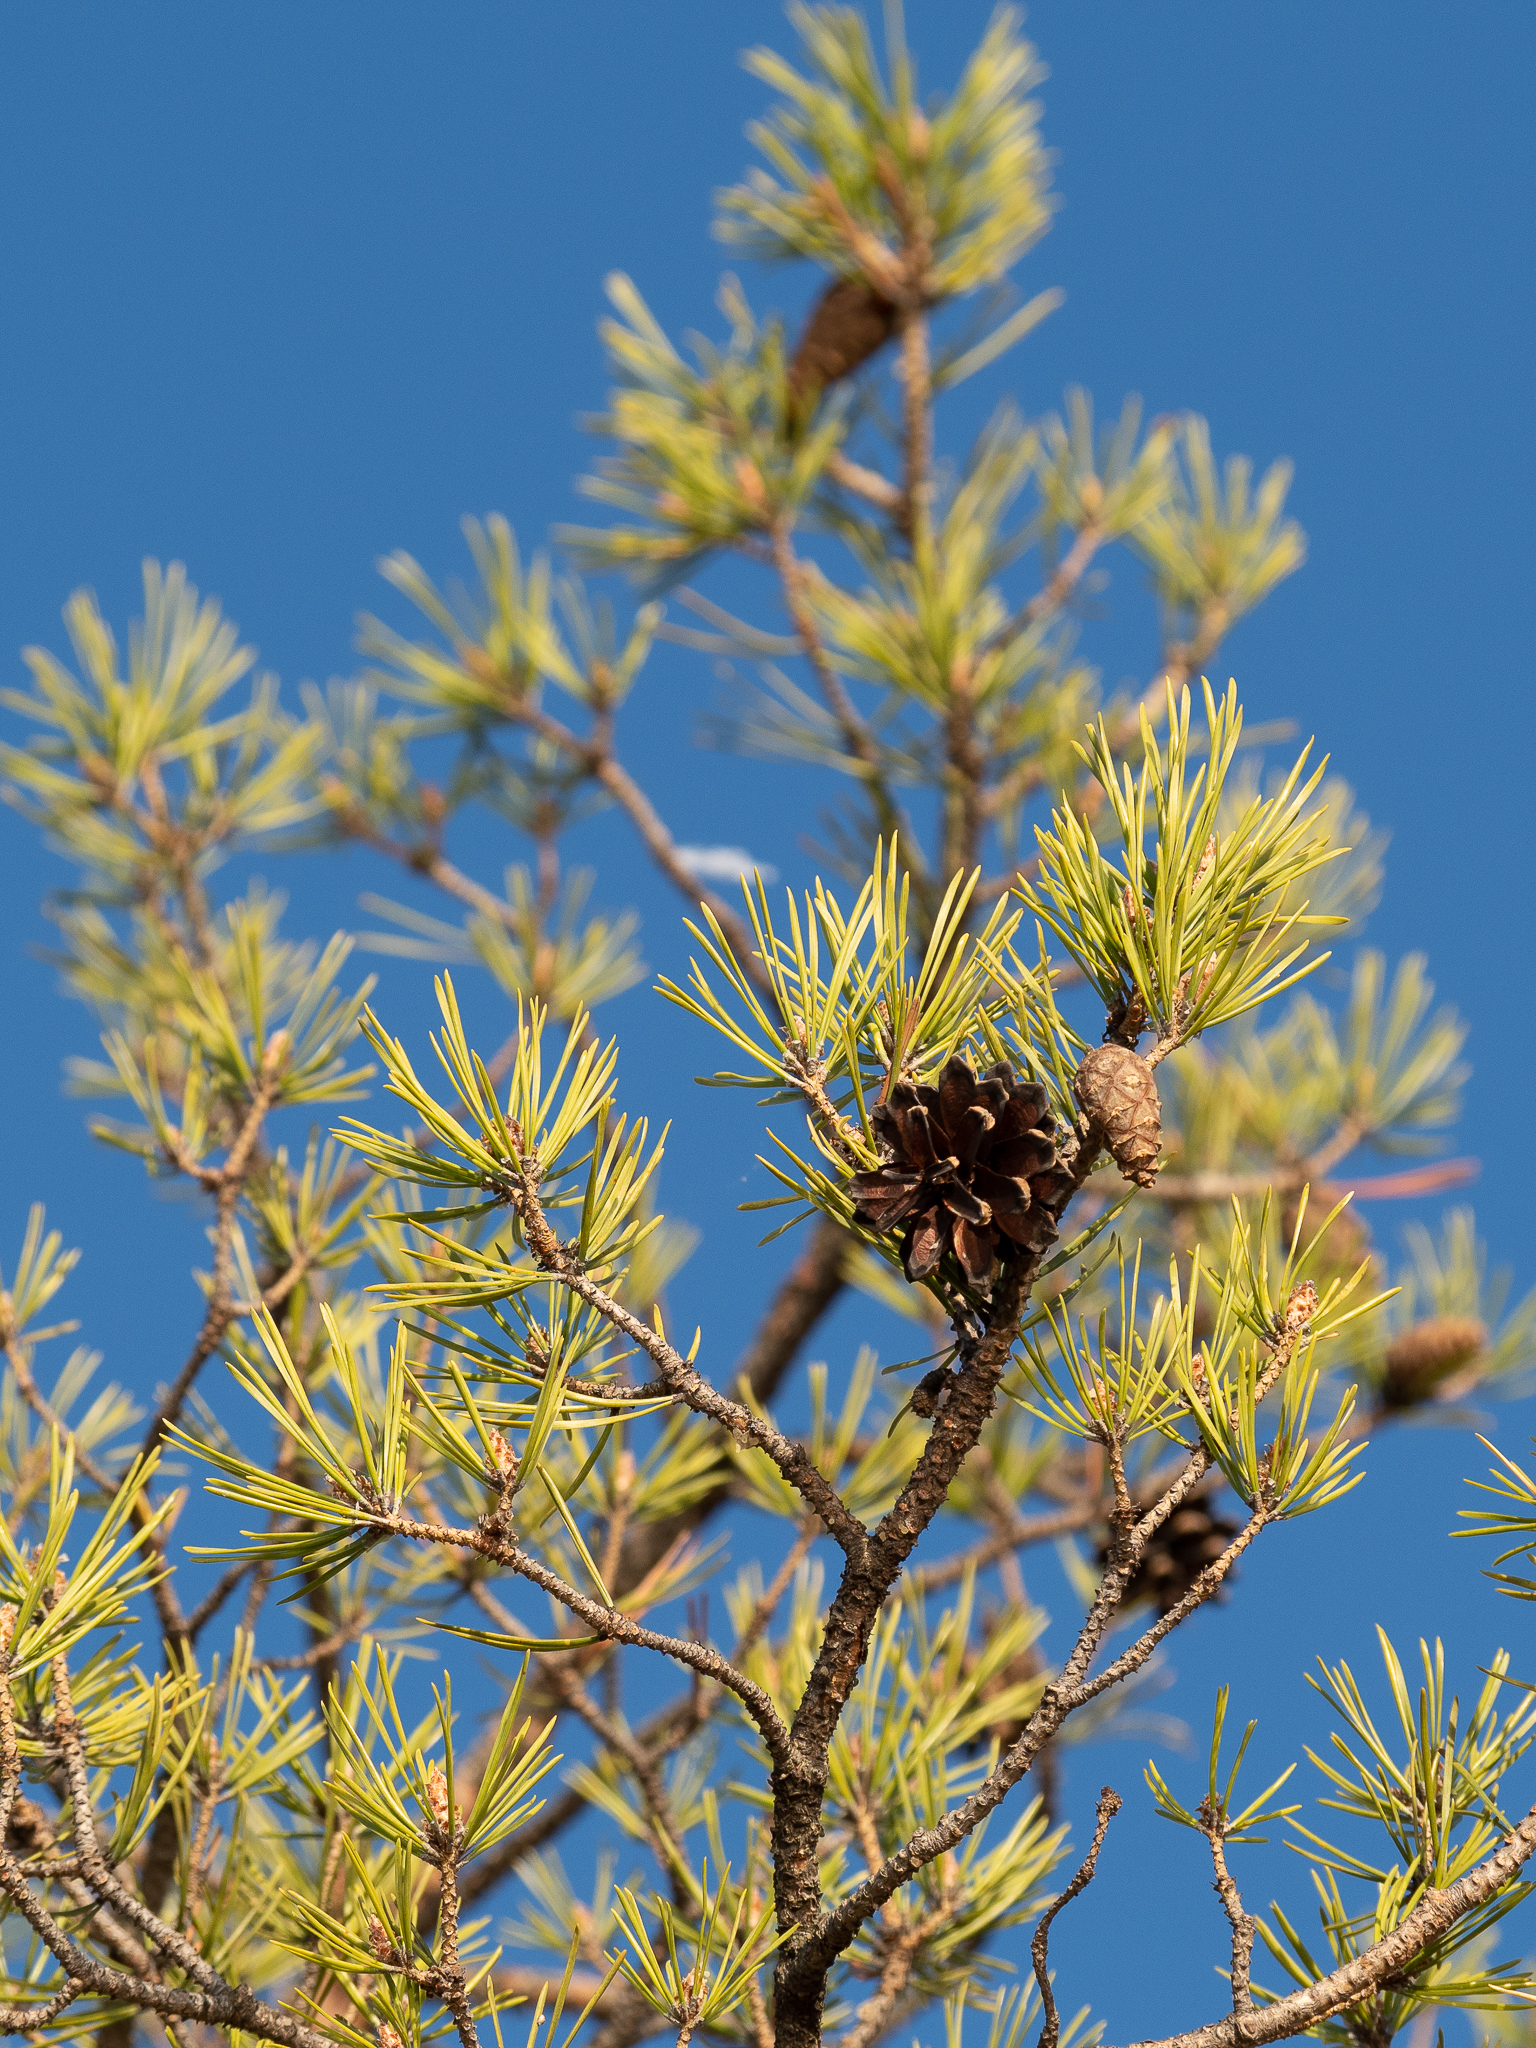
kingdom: Plantae
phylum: Tracheophyta
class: Pinopsida
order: Pinales
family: Pinaceae
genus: Pinus
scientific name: Pinus sylvestris
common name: Scots pine
